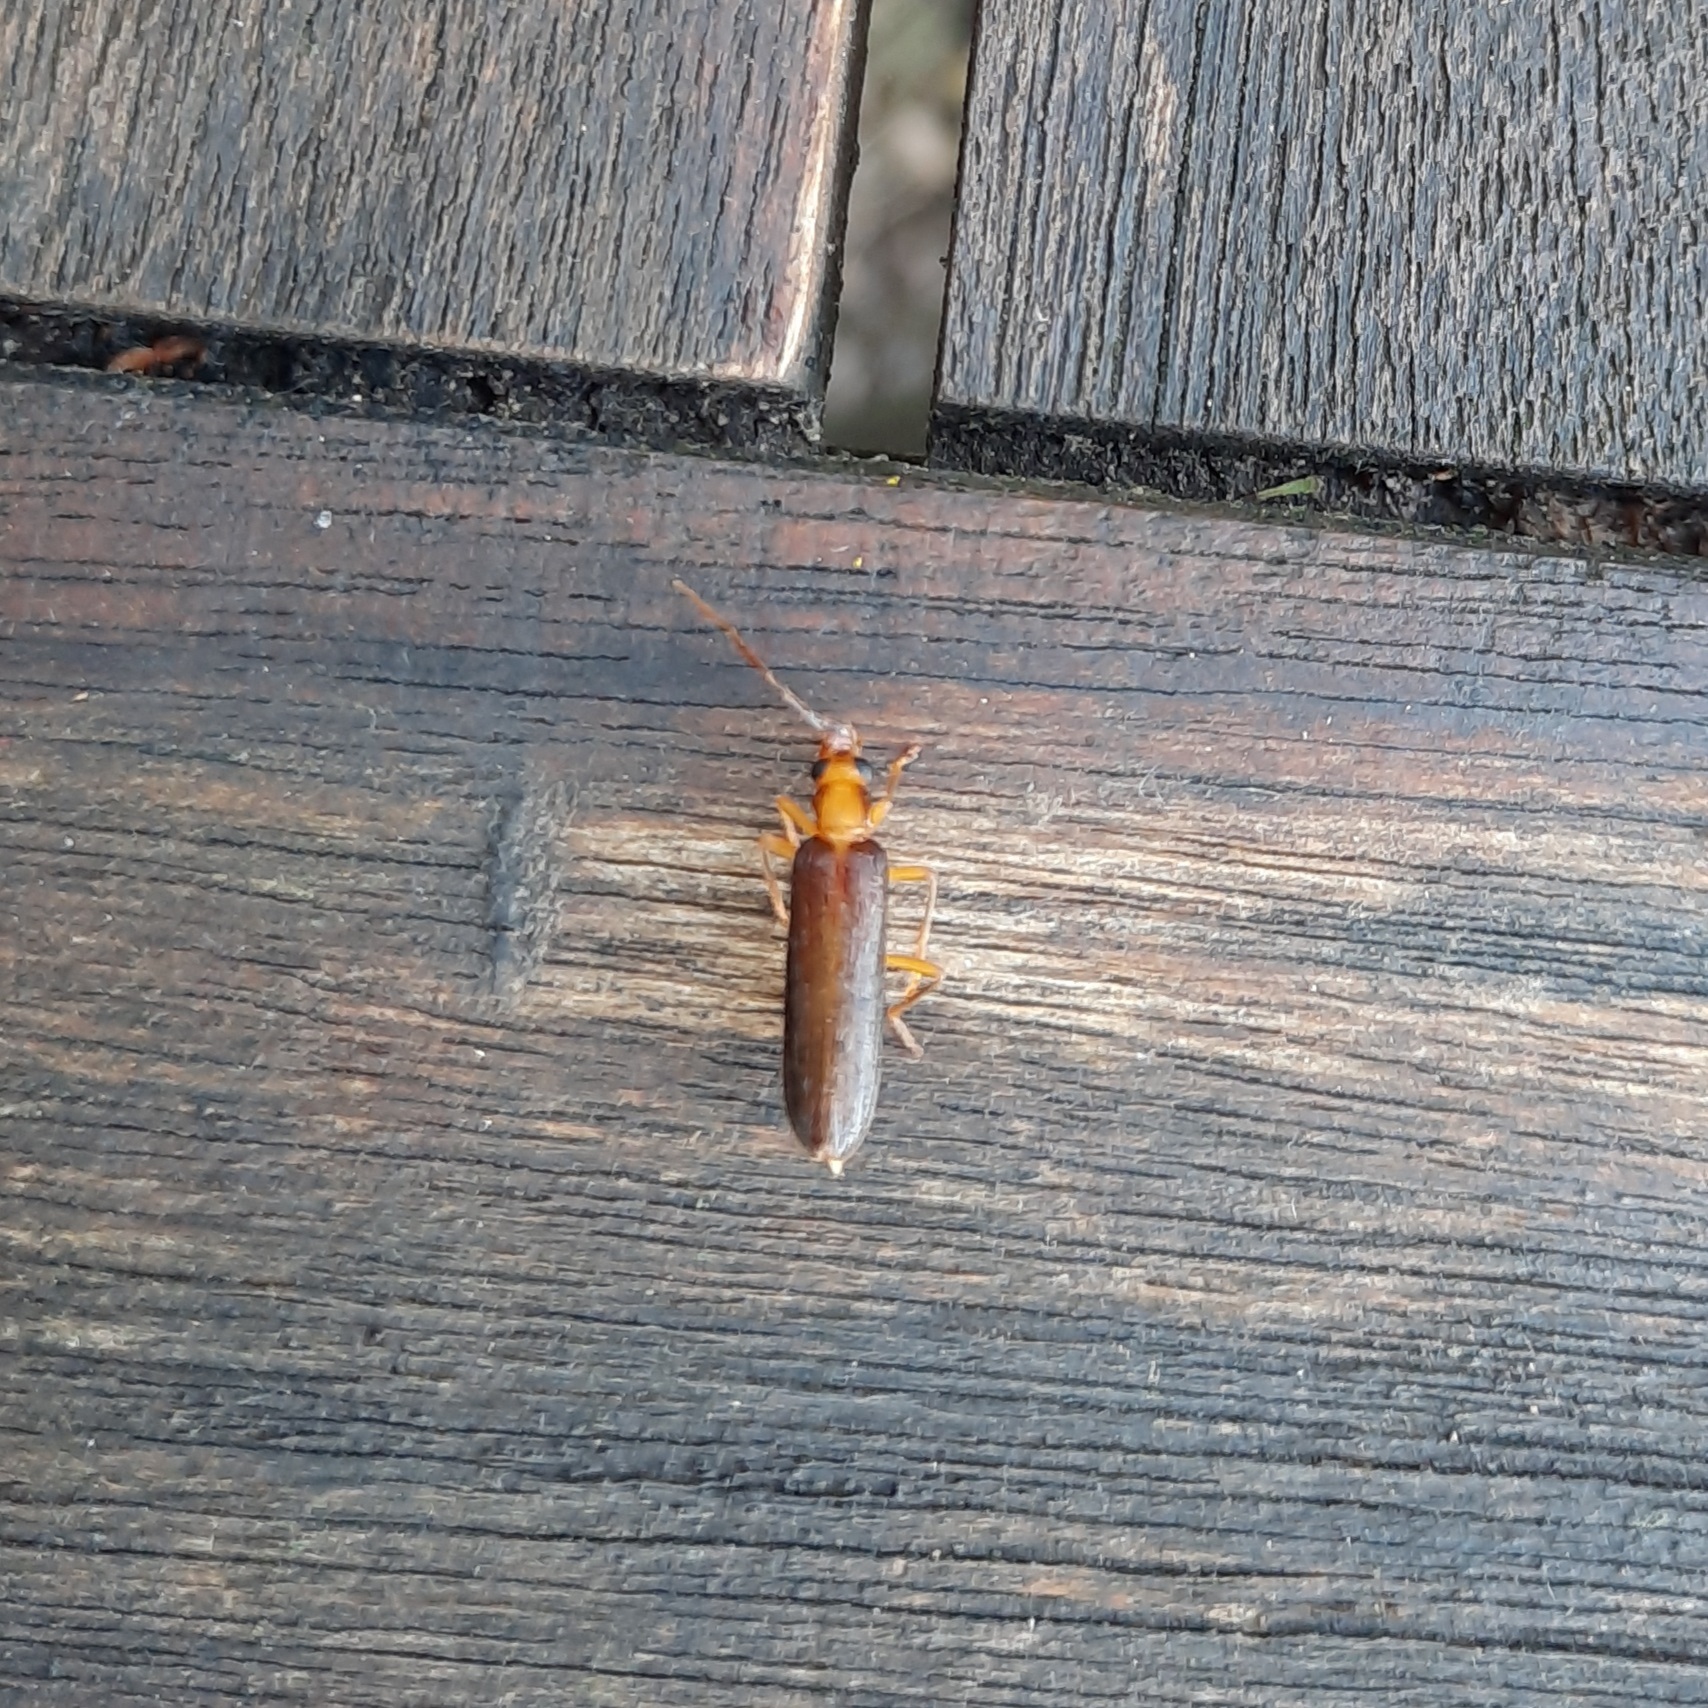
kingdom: Animalia
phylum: Arthropoda
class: Insecta
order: Coleoptera
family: Oedemeridae
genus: Nacerdes
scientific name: Nacerdes carniolica
